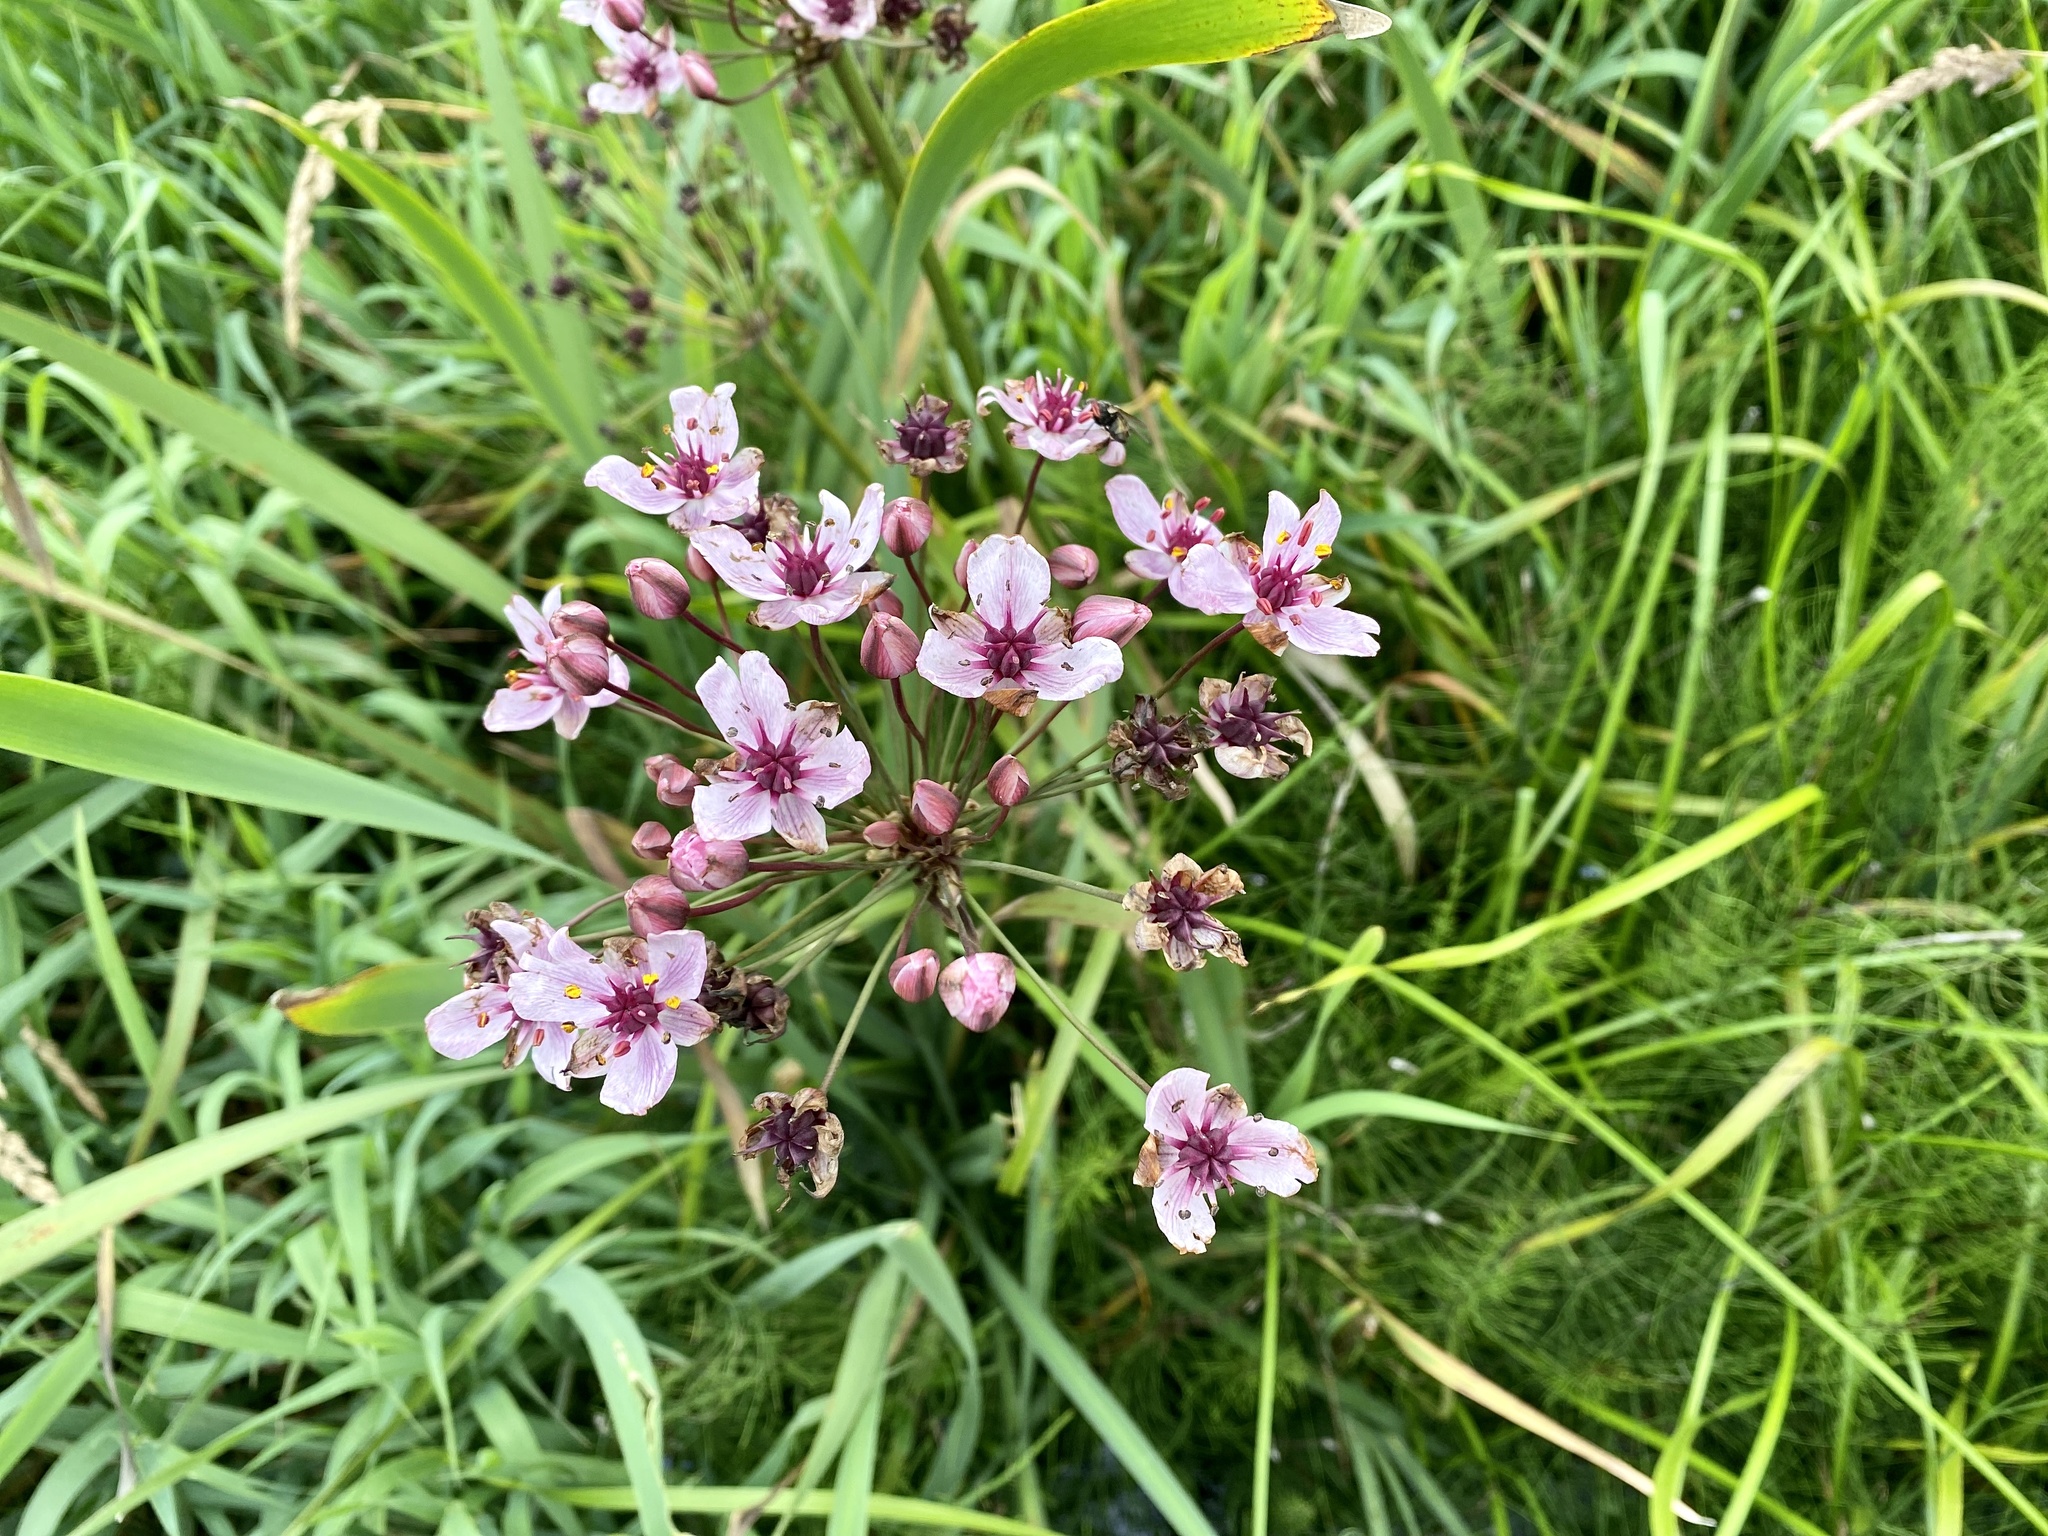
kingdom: Plantae
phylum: Tracheophyta
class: Liliopsida
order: Alismatales
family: Butomaceae
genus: Butomus
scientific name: Butomus umbellatus
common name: Flowering-rush
